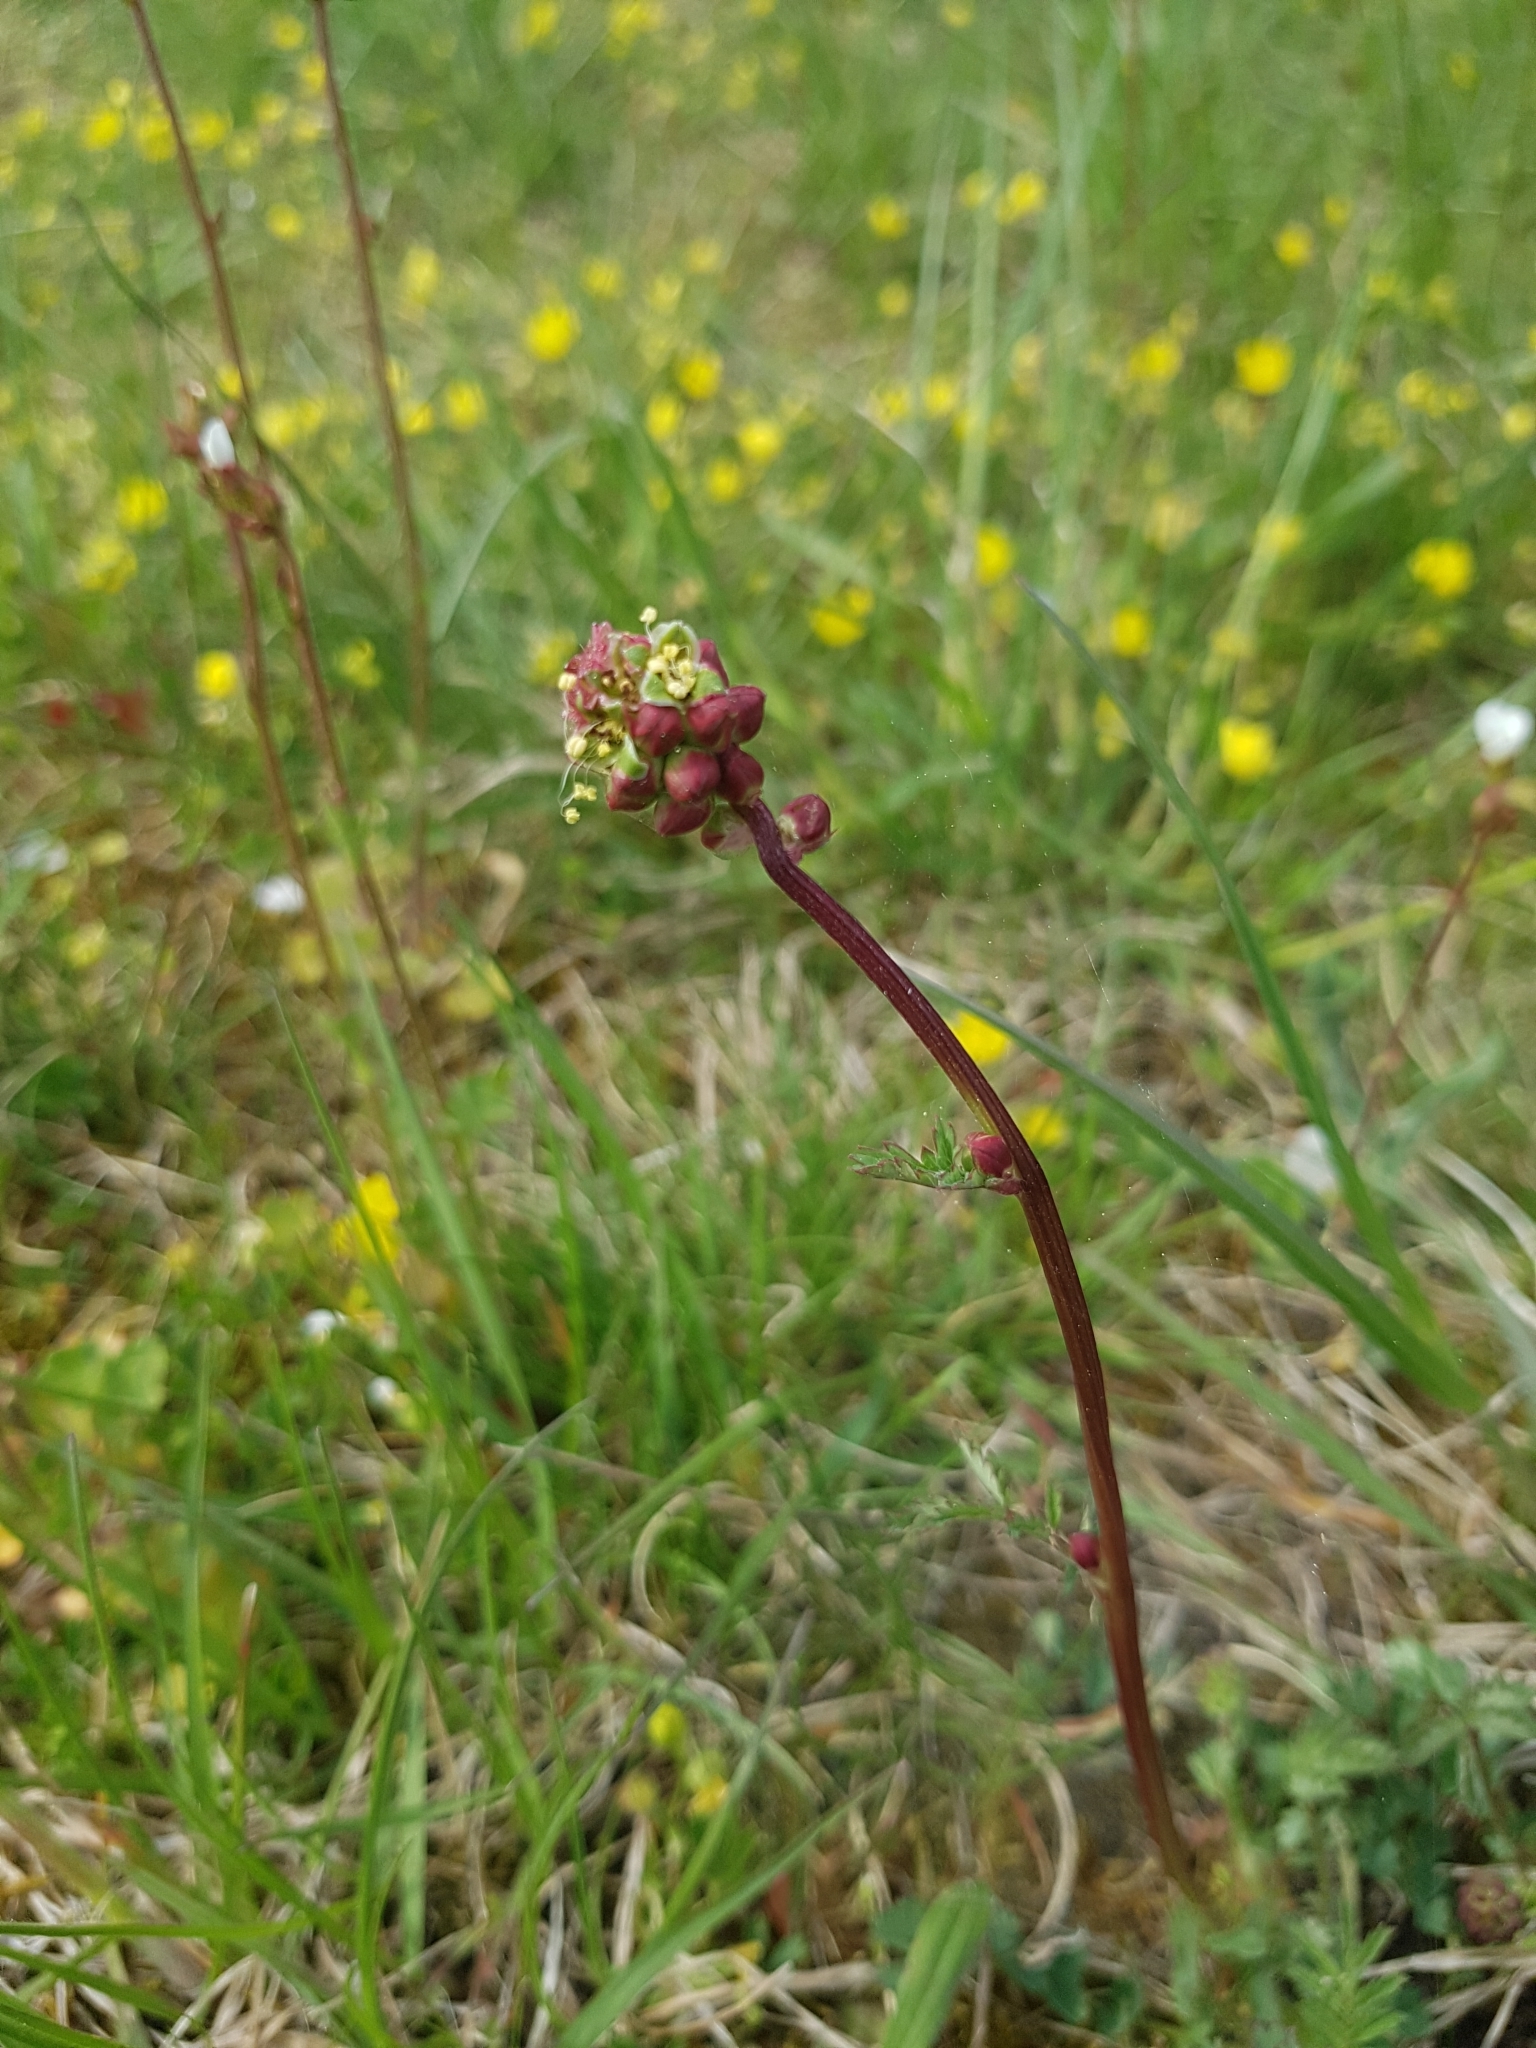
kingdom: Plantae
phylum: Tracheophyta
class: Magnoliopsida
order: Rosales
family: Rosaceae
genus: Poterium
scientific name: Poterium sanguisorba
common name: Salad burnet
